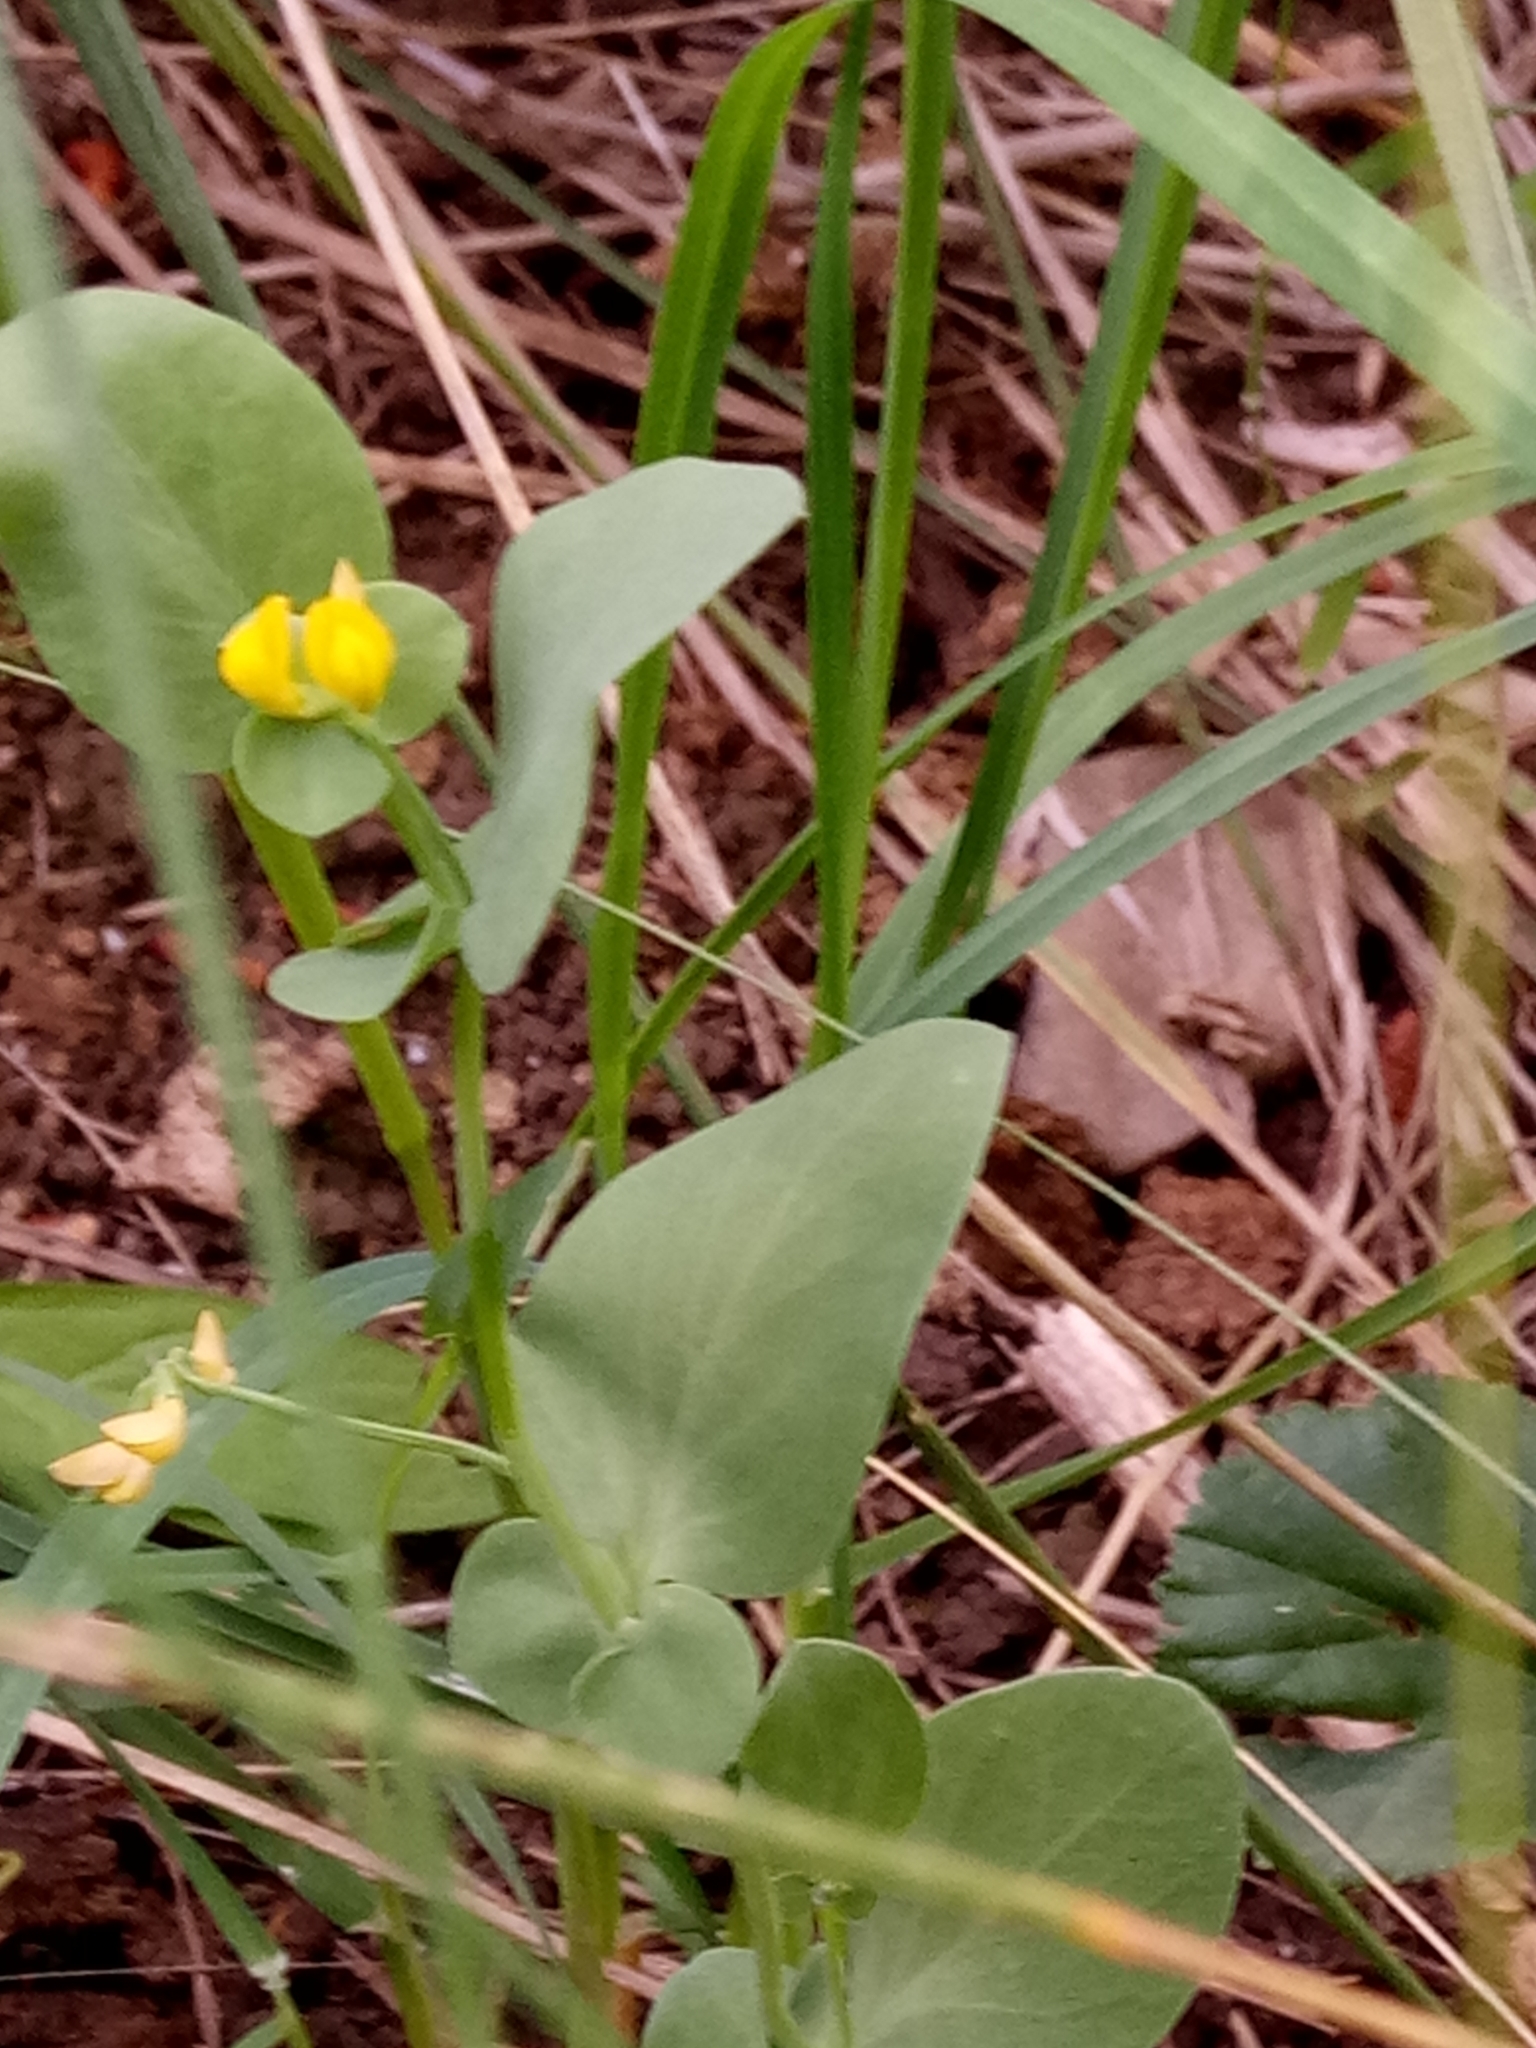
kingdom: Plantae
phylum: Tracheophyta
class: Magnoliopsida
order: Fabales
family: Fabaceae
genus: Coronilla
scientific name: Coronilla scorpioides
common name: Annual scorpion-vetch
